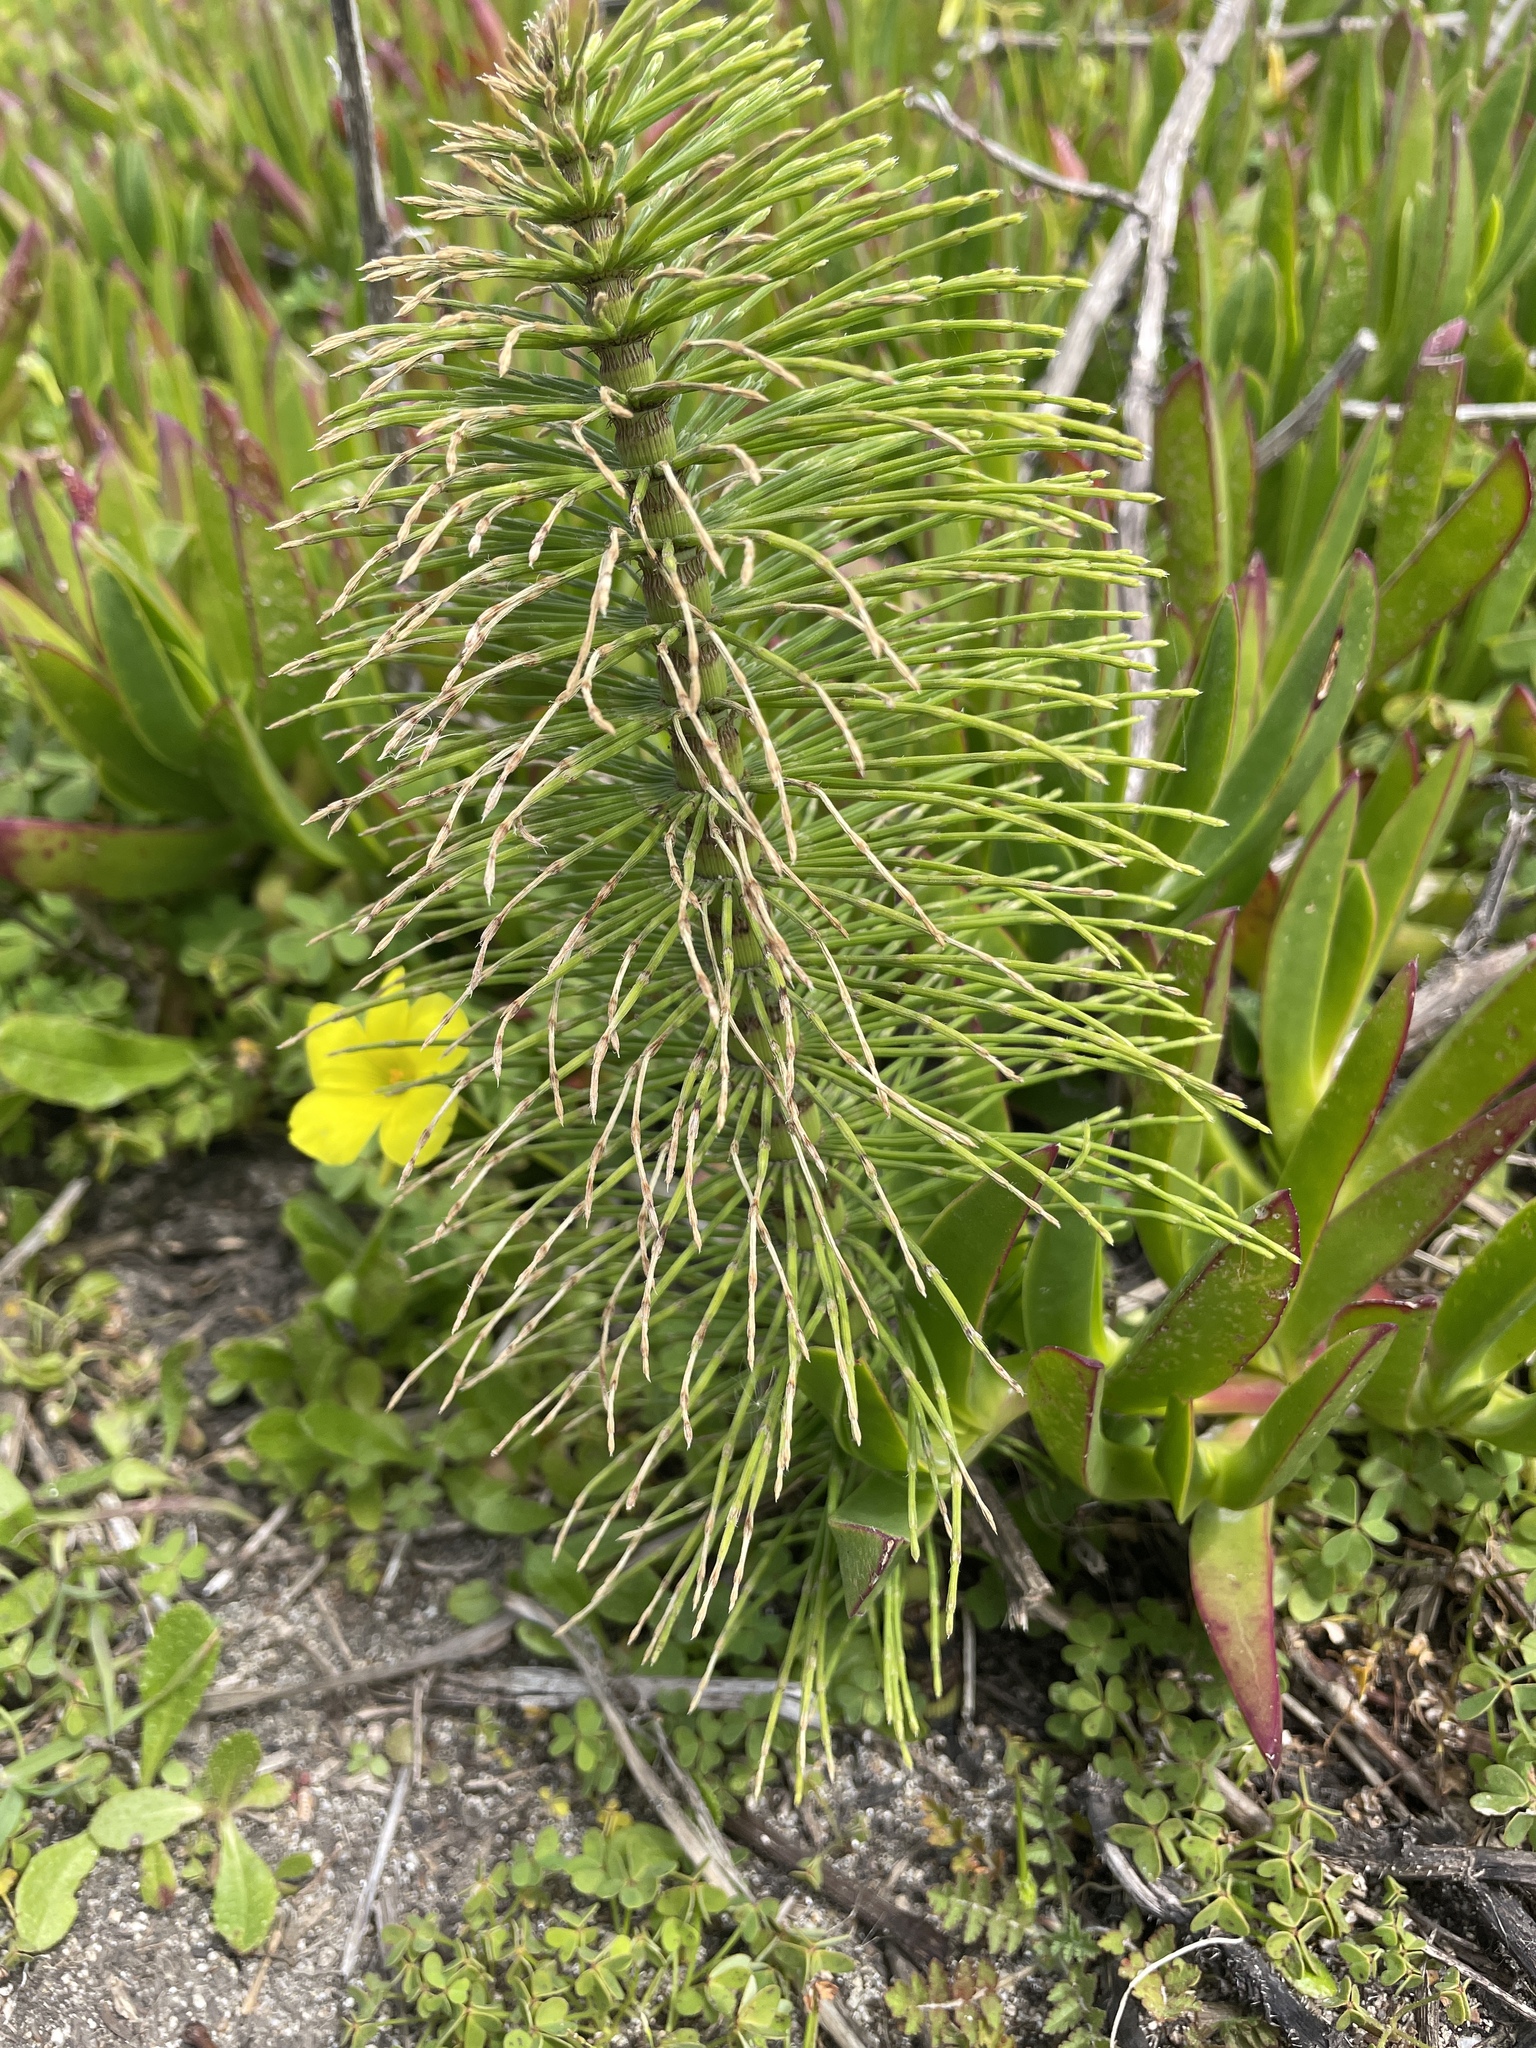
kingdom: Plantae
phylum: Tracheophyta
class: Polypodiopsida
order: Equisetales
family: Equisetaceae
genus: Equisetum
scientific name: Equisetum braunii
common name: Braun's horsetail
